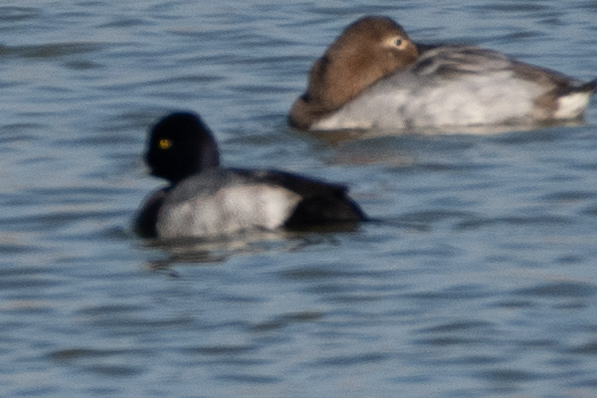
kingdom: Animalia
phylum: Chordata
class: Aves
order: Anseriformes
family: Anatidae
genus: Aythya
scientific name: Aythya affinis
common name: Lesser scaup
